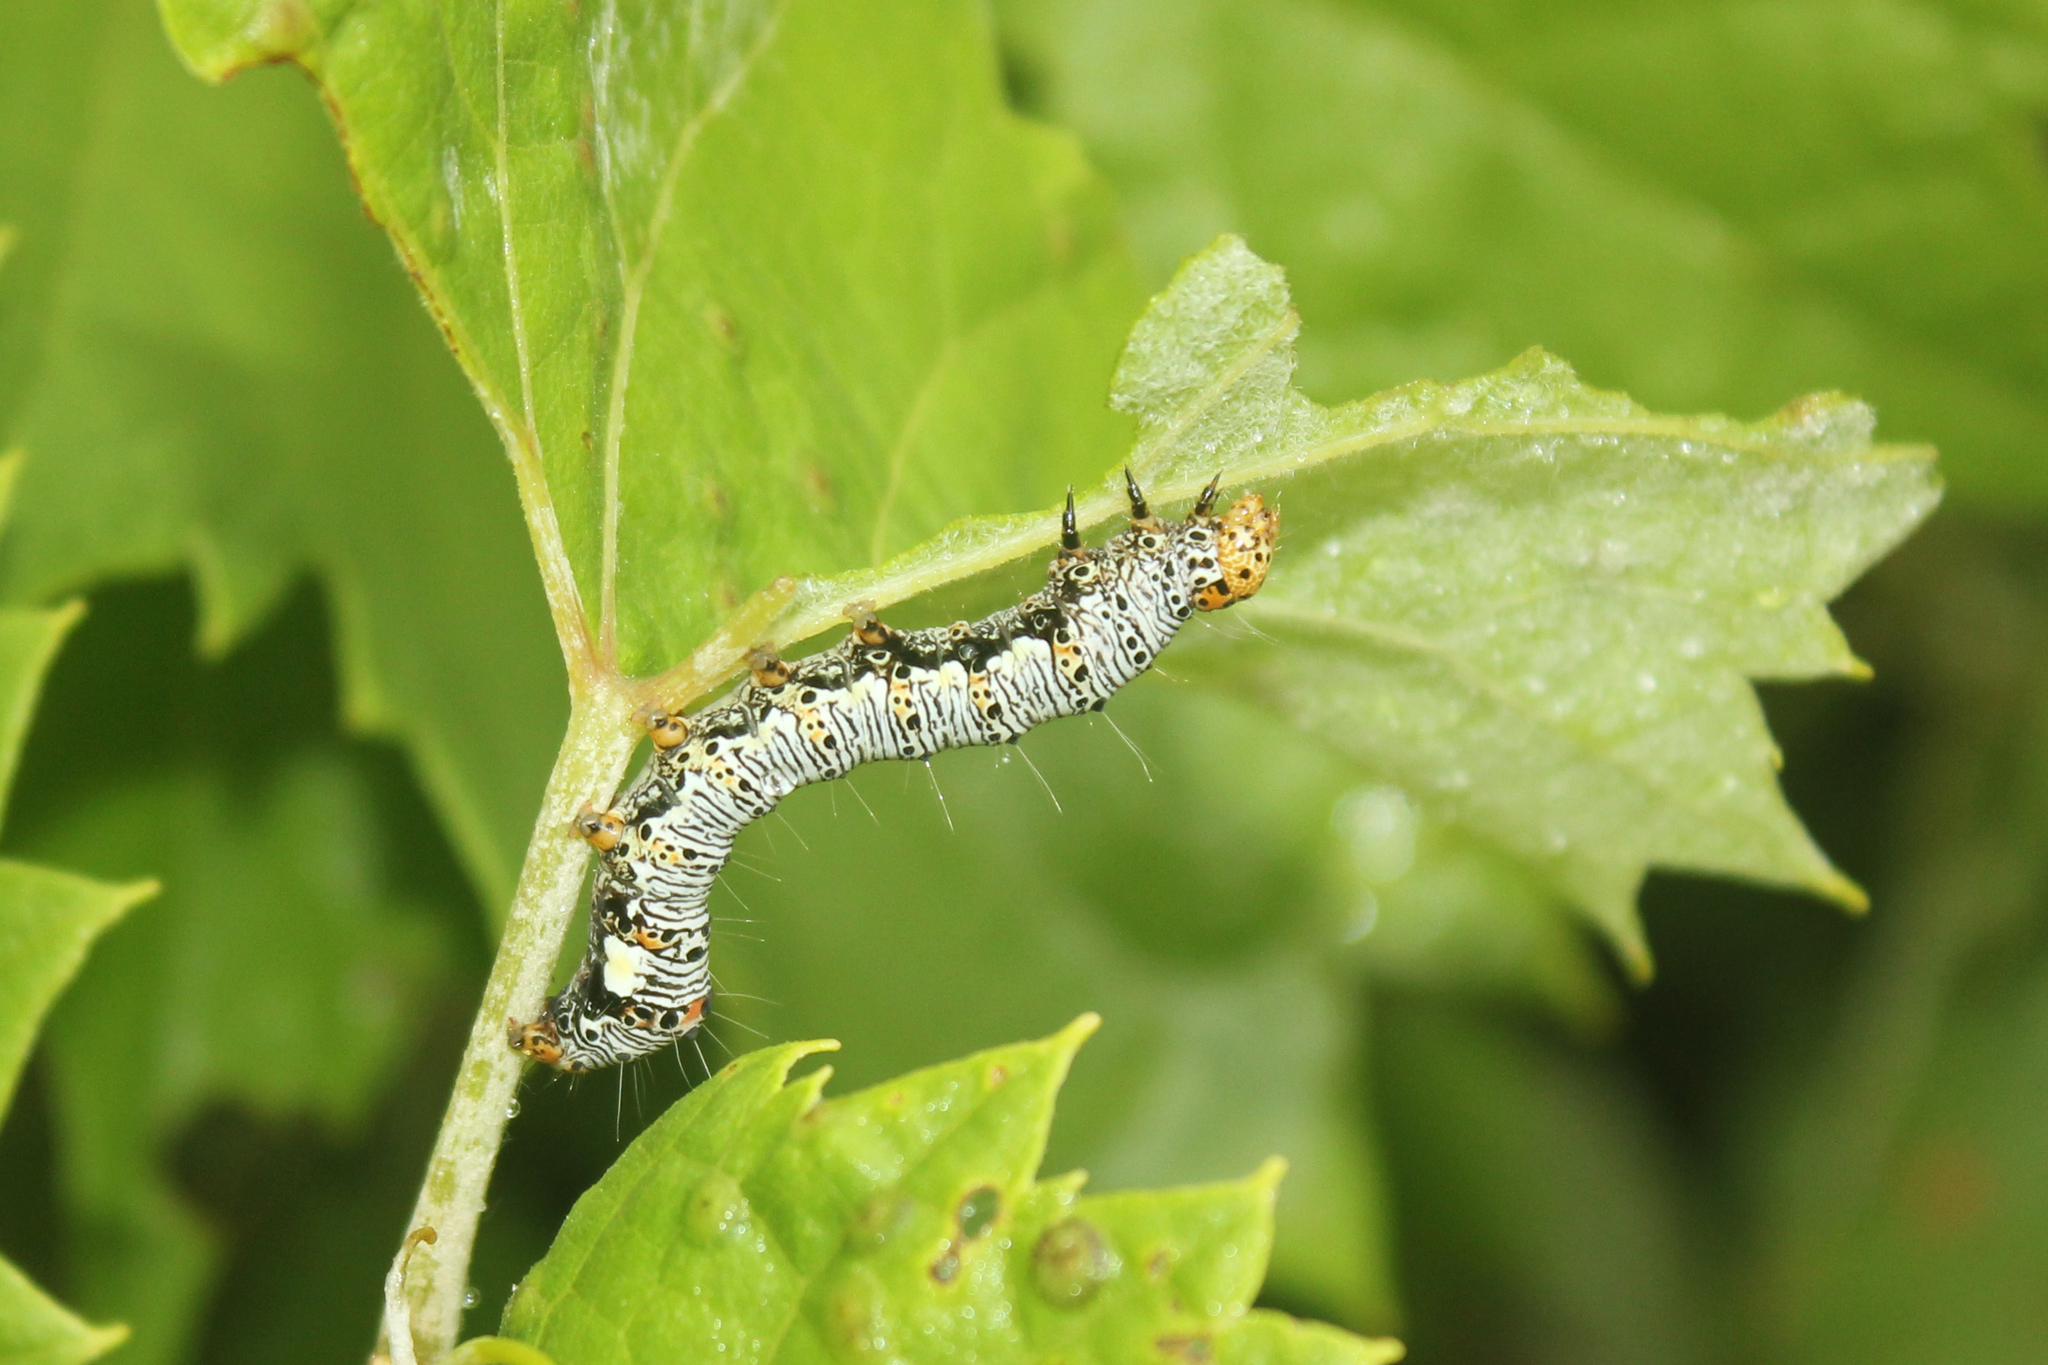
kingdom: Animalia
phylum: Arthropoda
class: Insecta
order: Lepidoptera
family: Noctuidae
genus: Alypia
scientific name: Alypia octomaculata
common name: Eight-spotted forester
